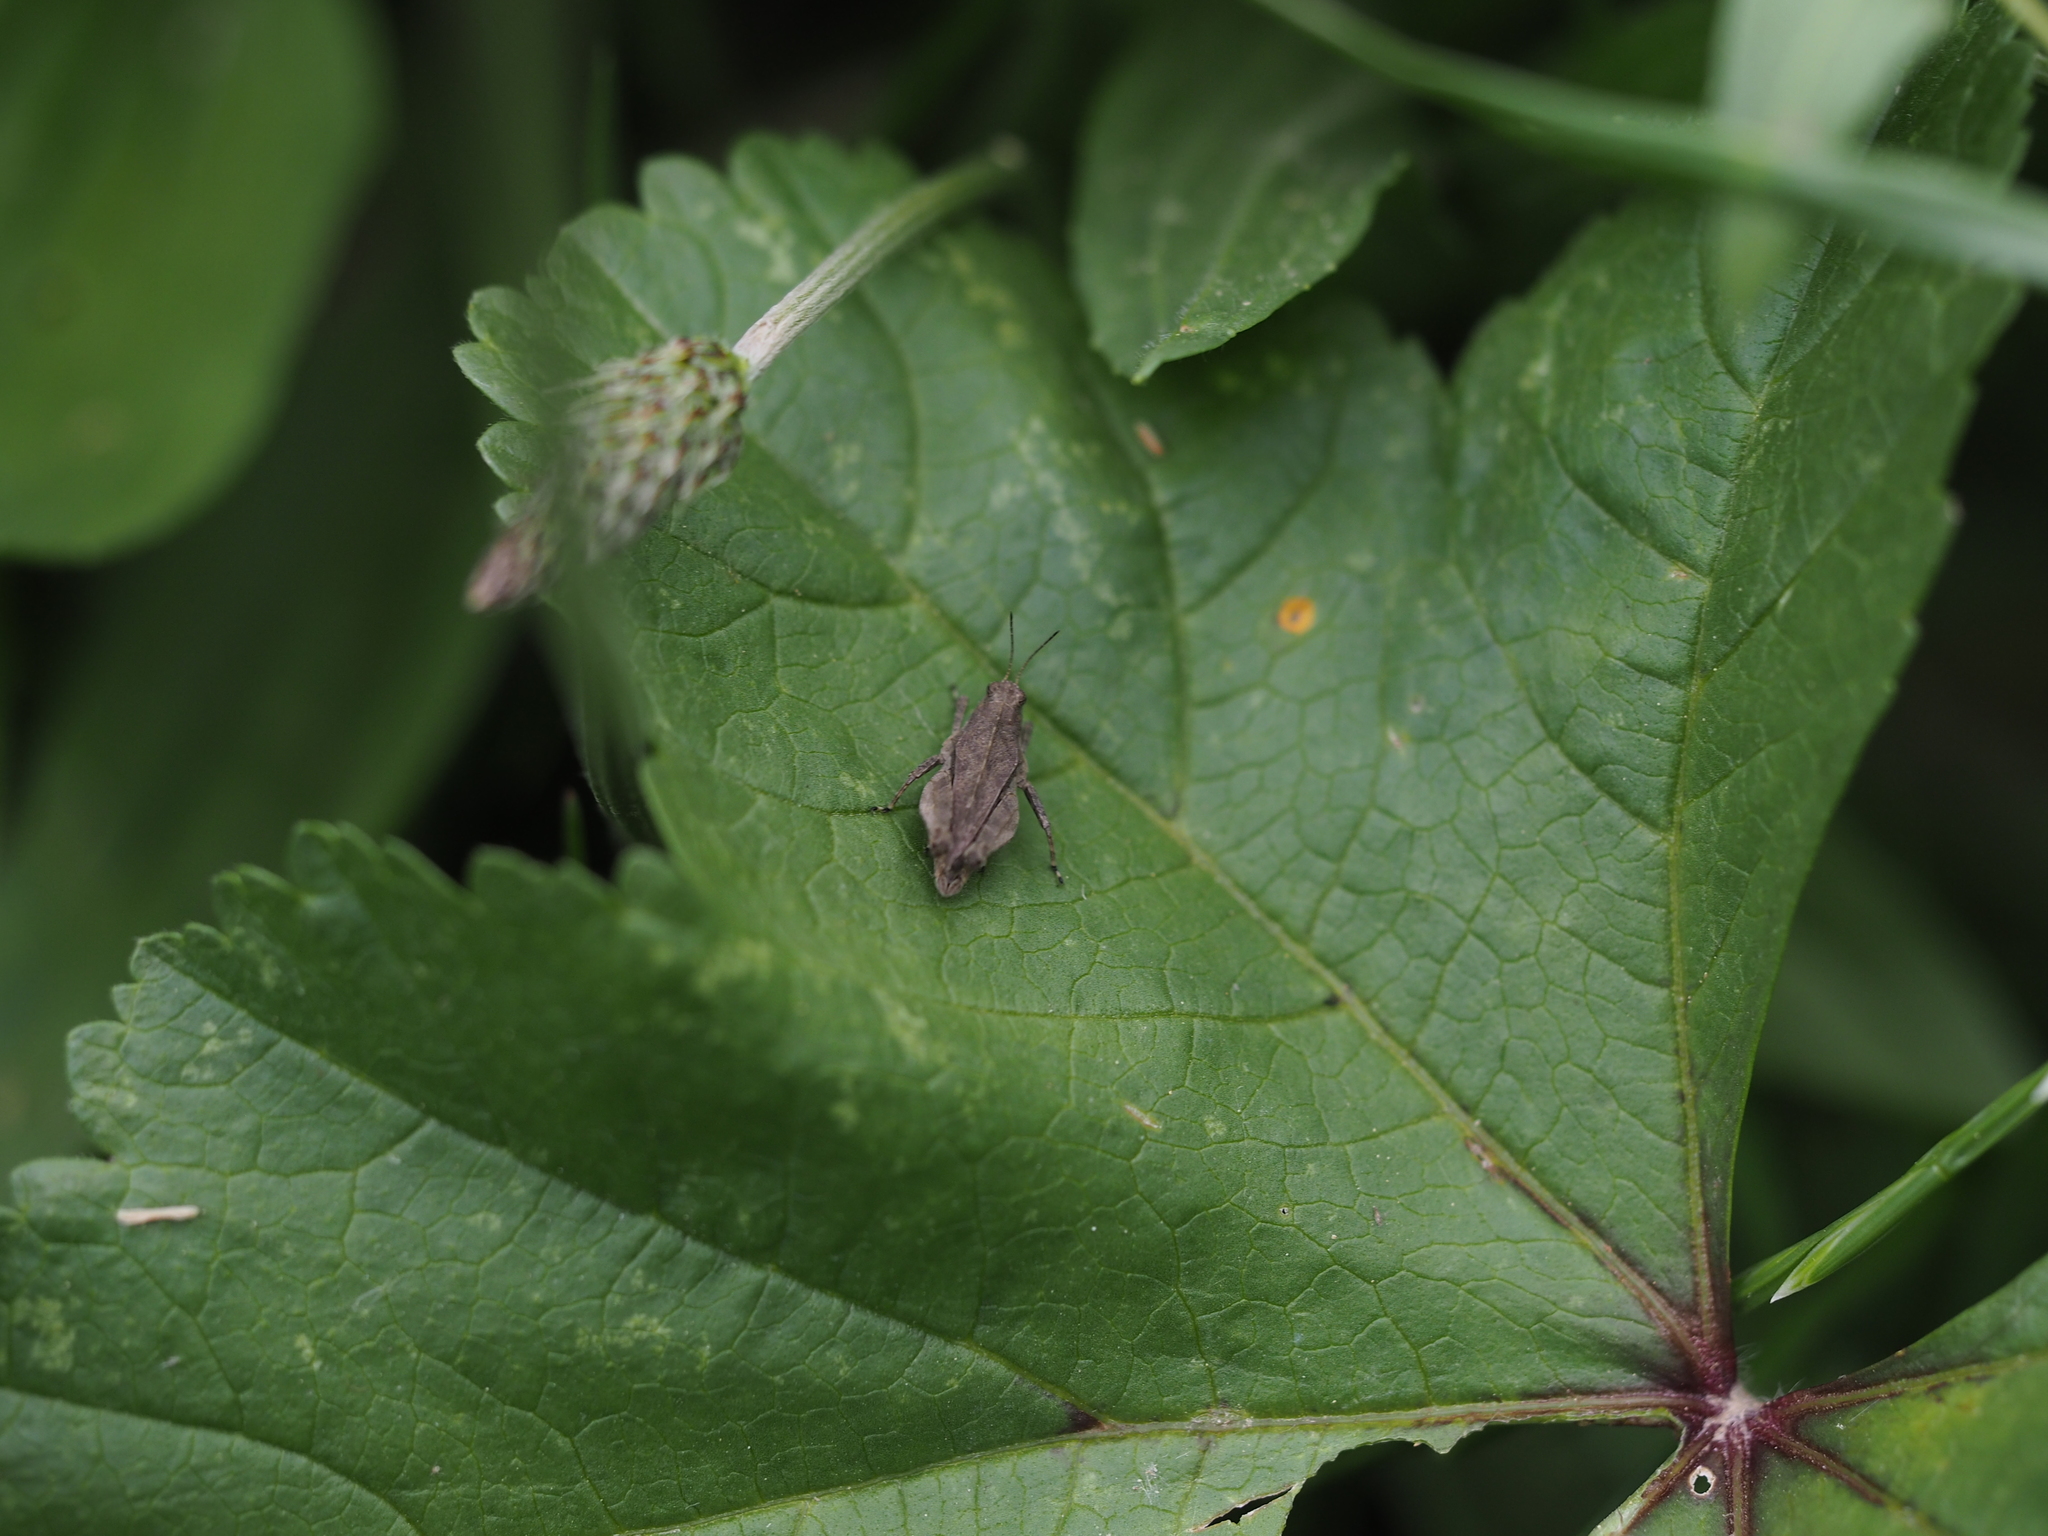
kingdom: Animalia
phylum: Arthropoda
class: Insecta
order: Orthoptera
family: Tetrigidae
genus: Tetrix
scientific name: Tetrix tenuicornis
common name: Long-horned groundhopper
